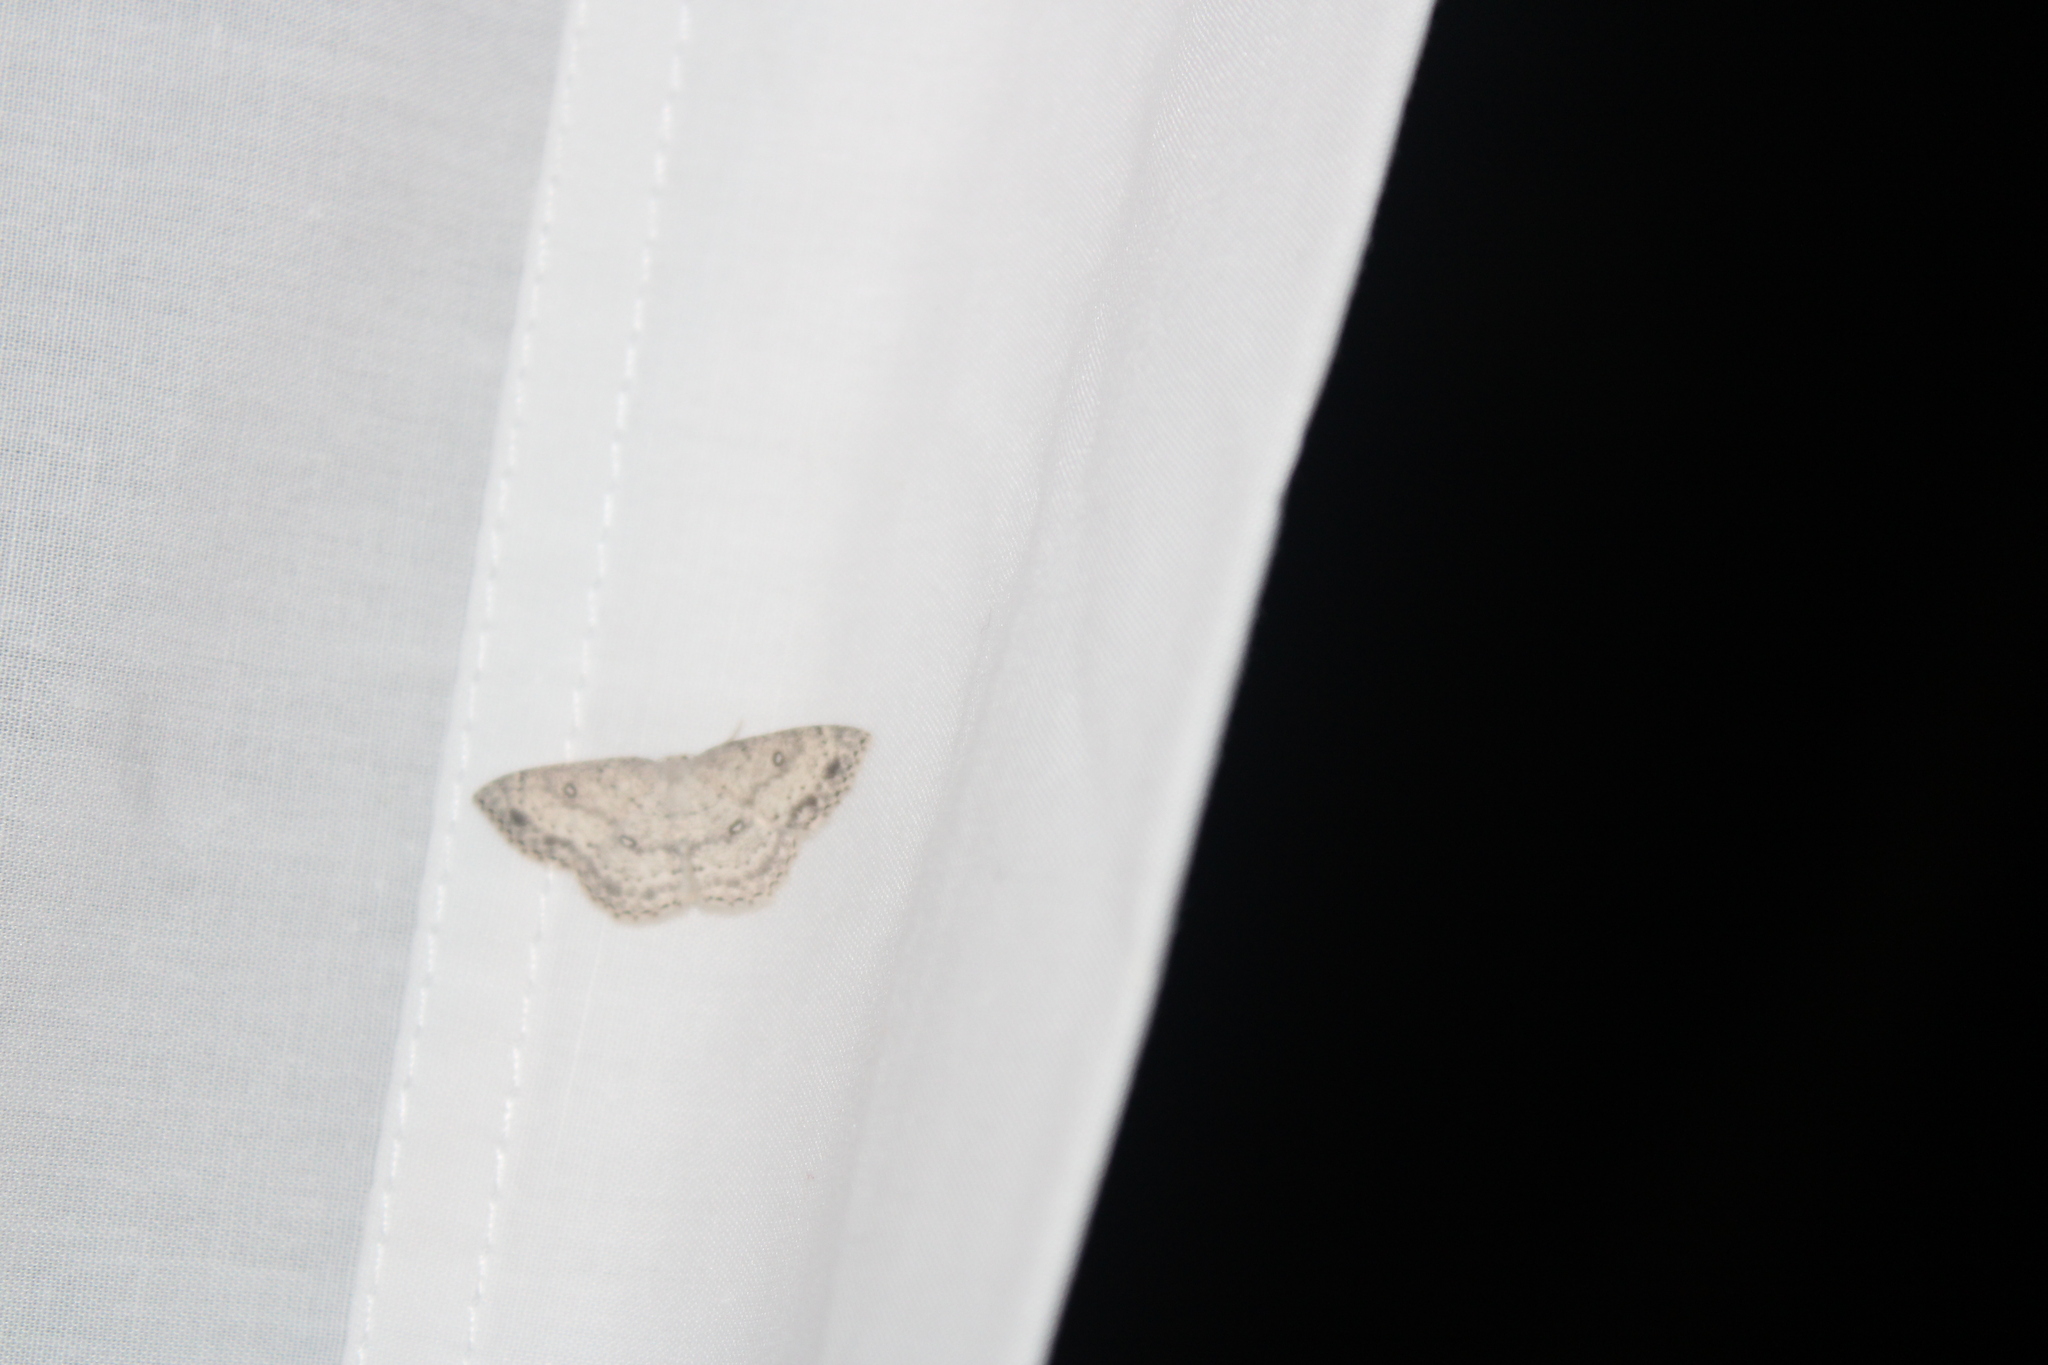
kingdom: Animalia
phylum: Arthropoda
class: Insecta
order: Lepidoptera
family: Geometridae
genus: Cyclophora
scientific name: Cyclophora pendulinaria
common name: Sweet fern geometer
